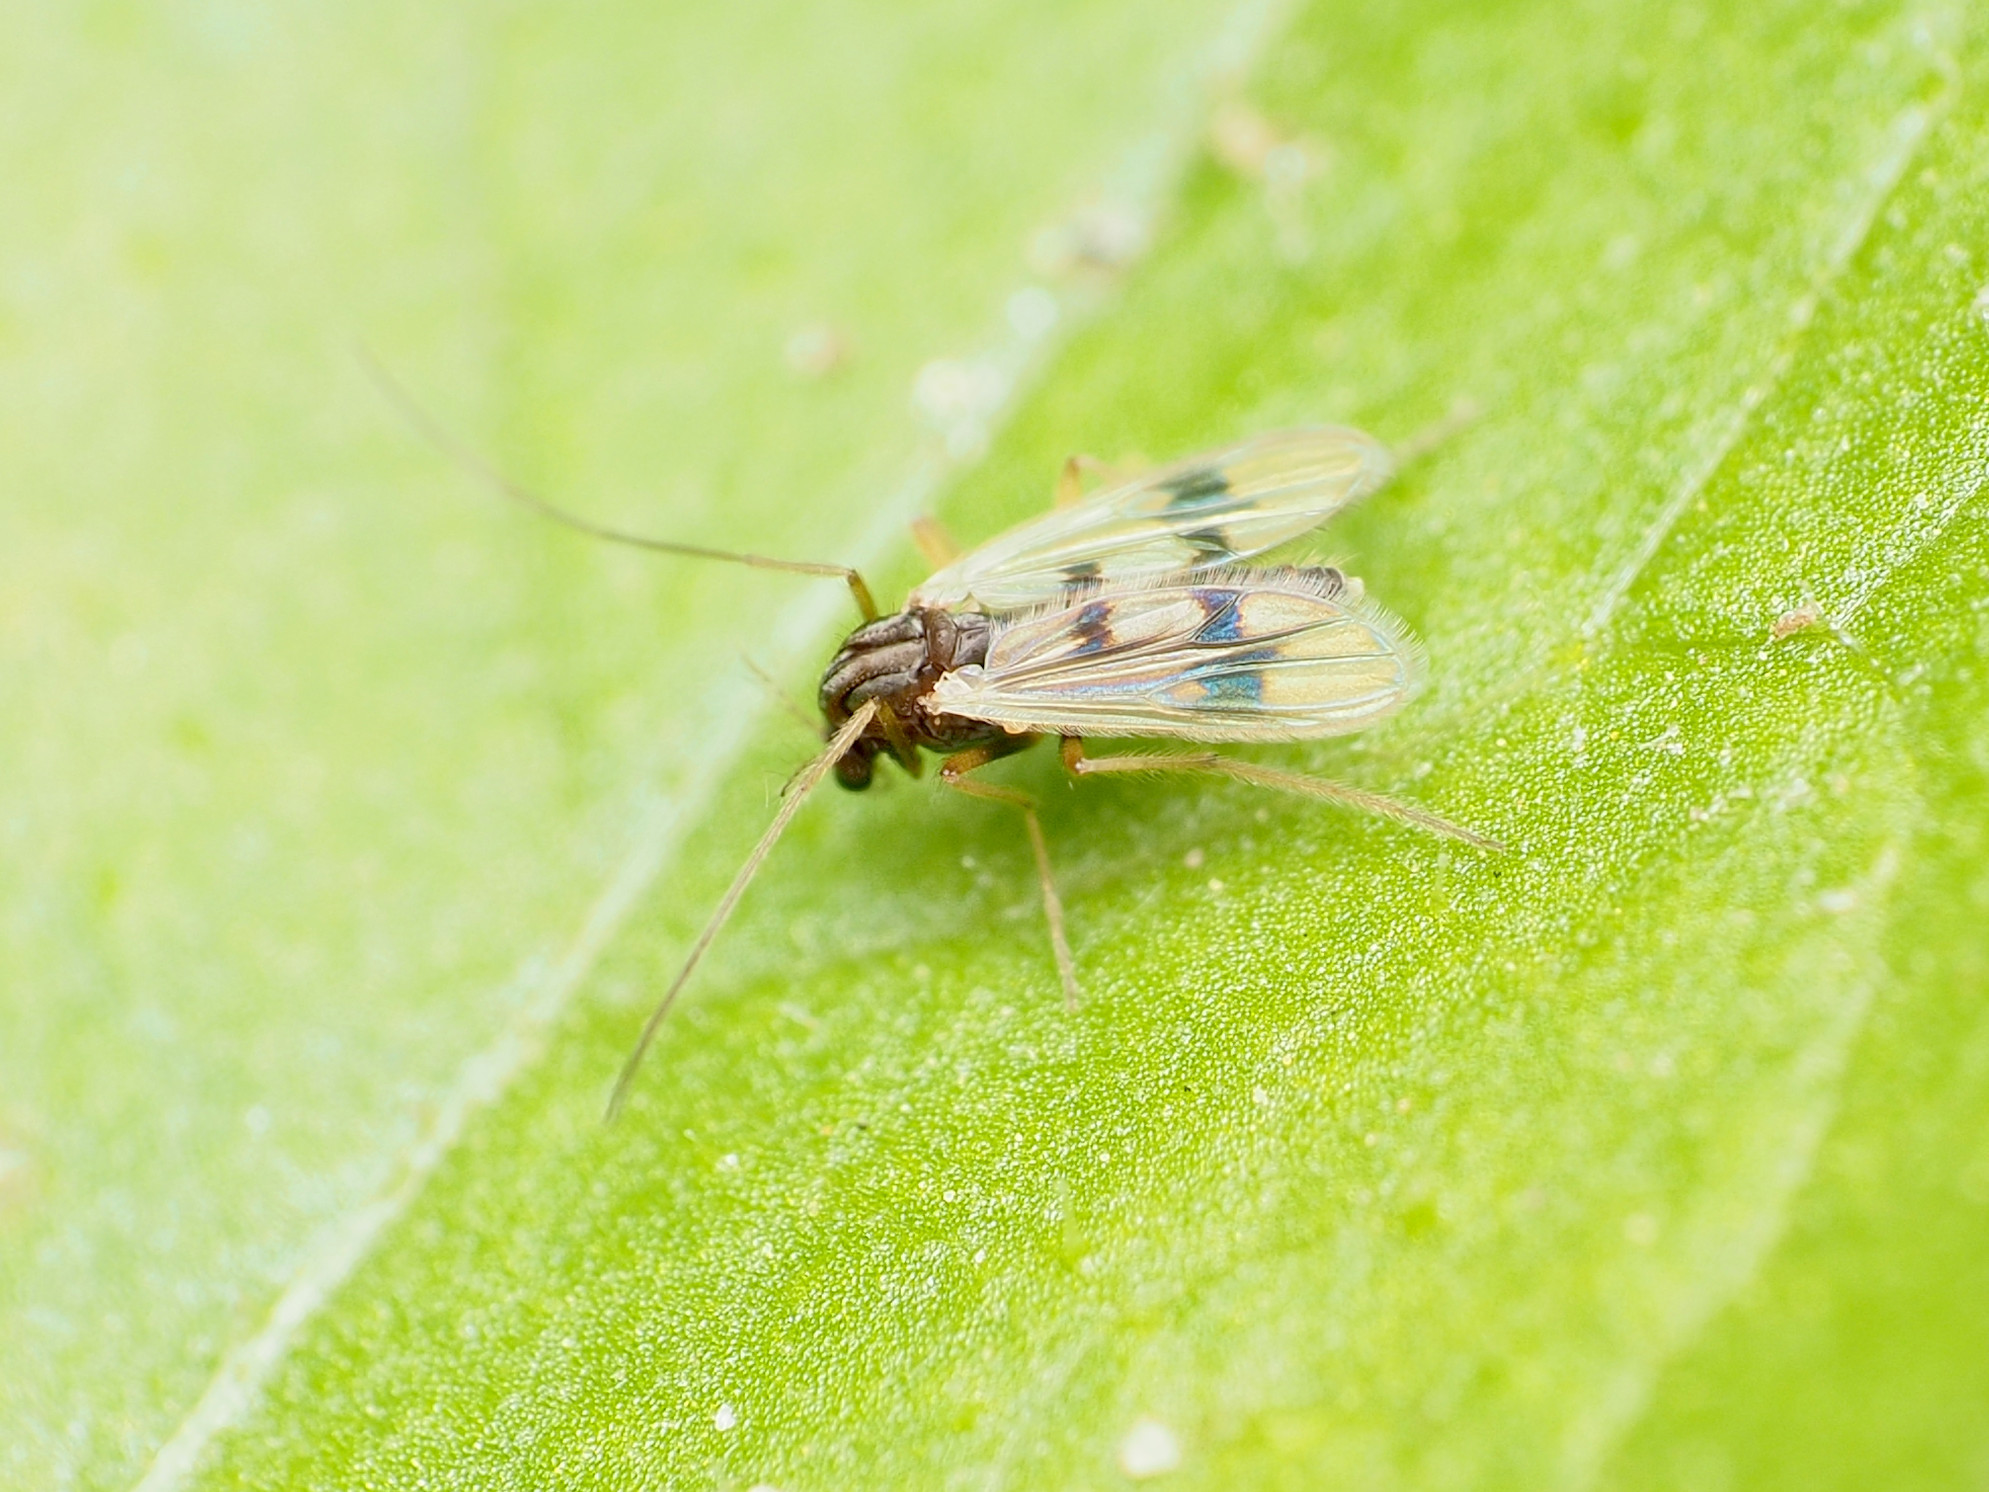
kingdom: Animalia
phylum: Arthropoda
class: Insecta
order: Diptera
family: Chironomidae
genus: Polypedilum
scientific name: Polypedilum scalaenum
